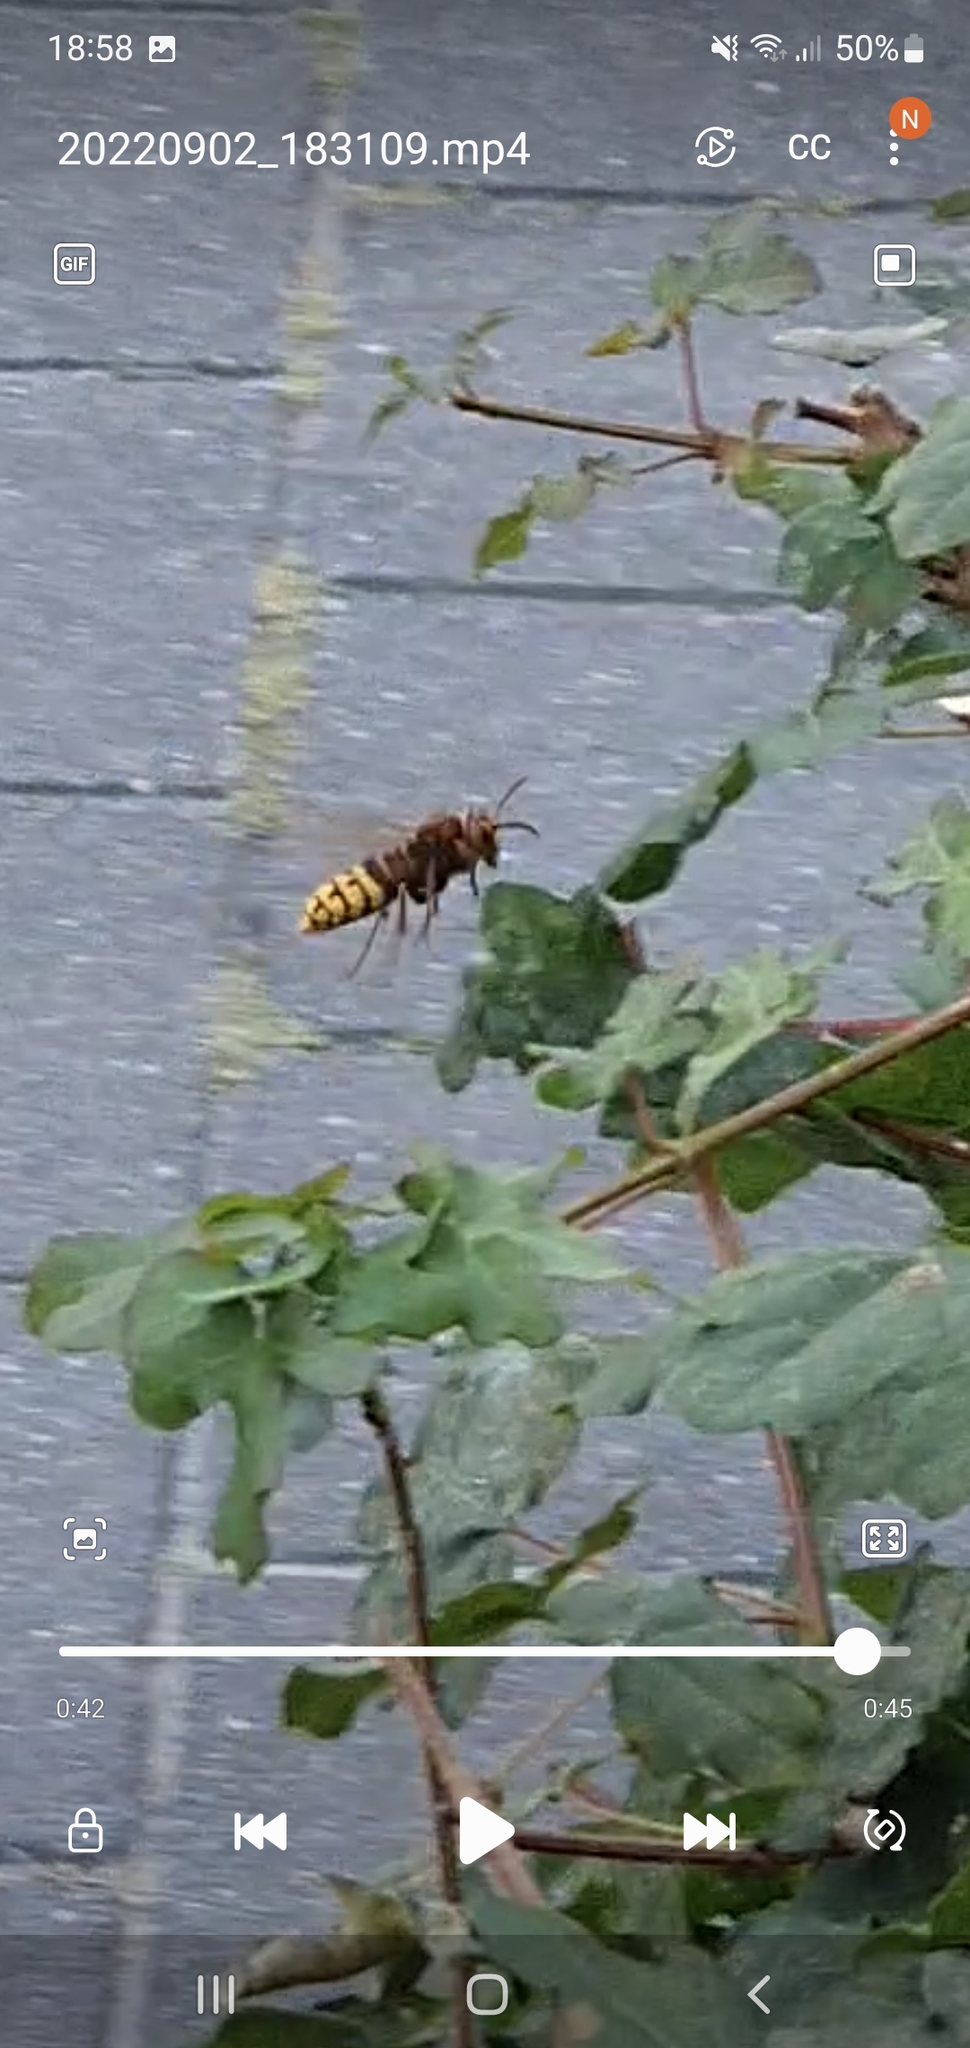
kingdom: Animalia
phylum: Arthropoda
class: Insecta
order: Hymenoptera
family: Vespidae
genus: Vespa
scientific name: Vespa crabro
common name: Hornet
